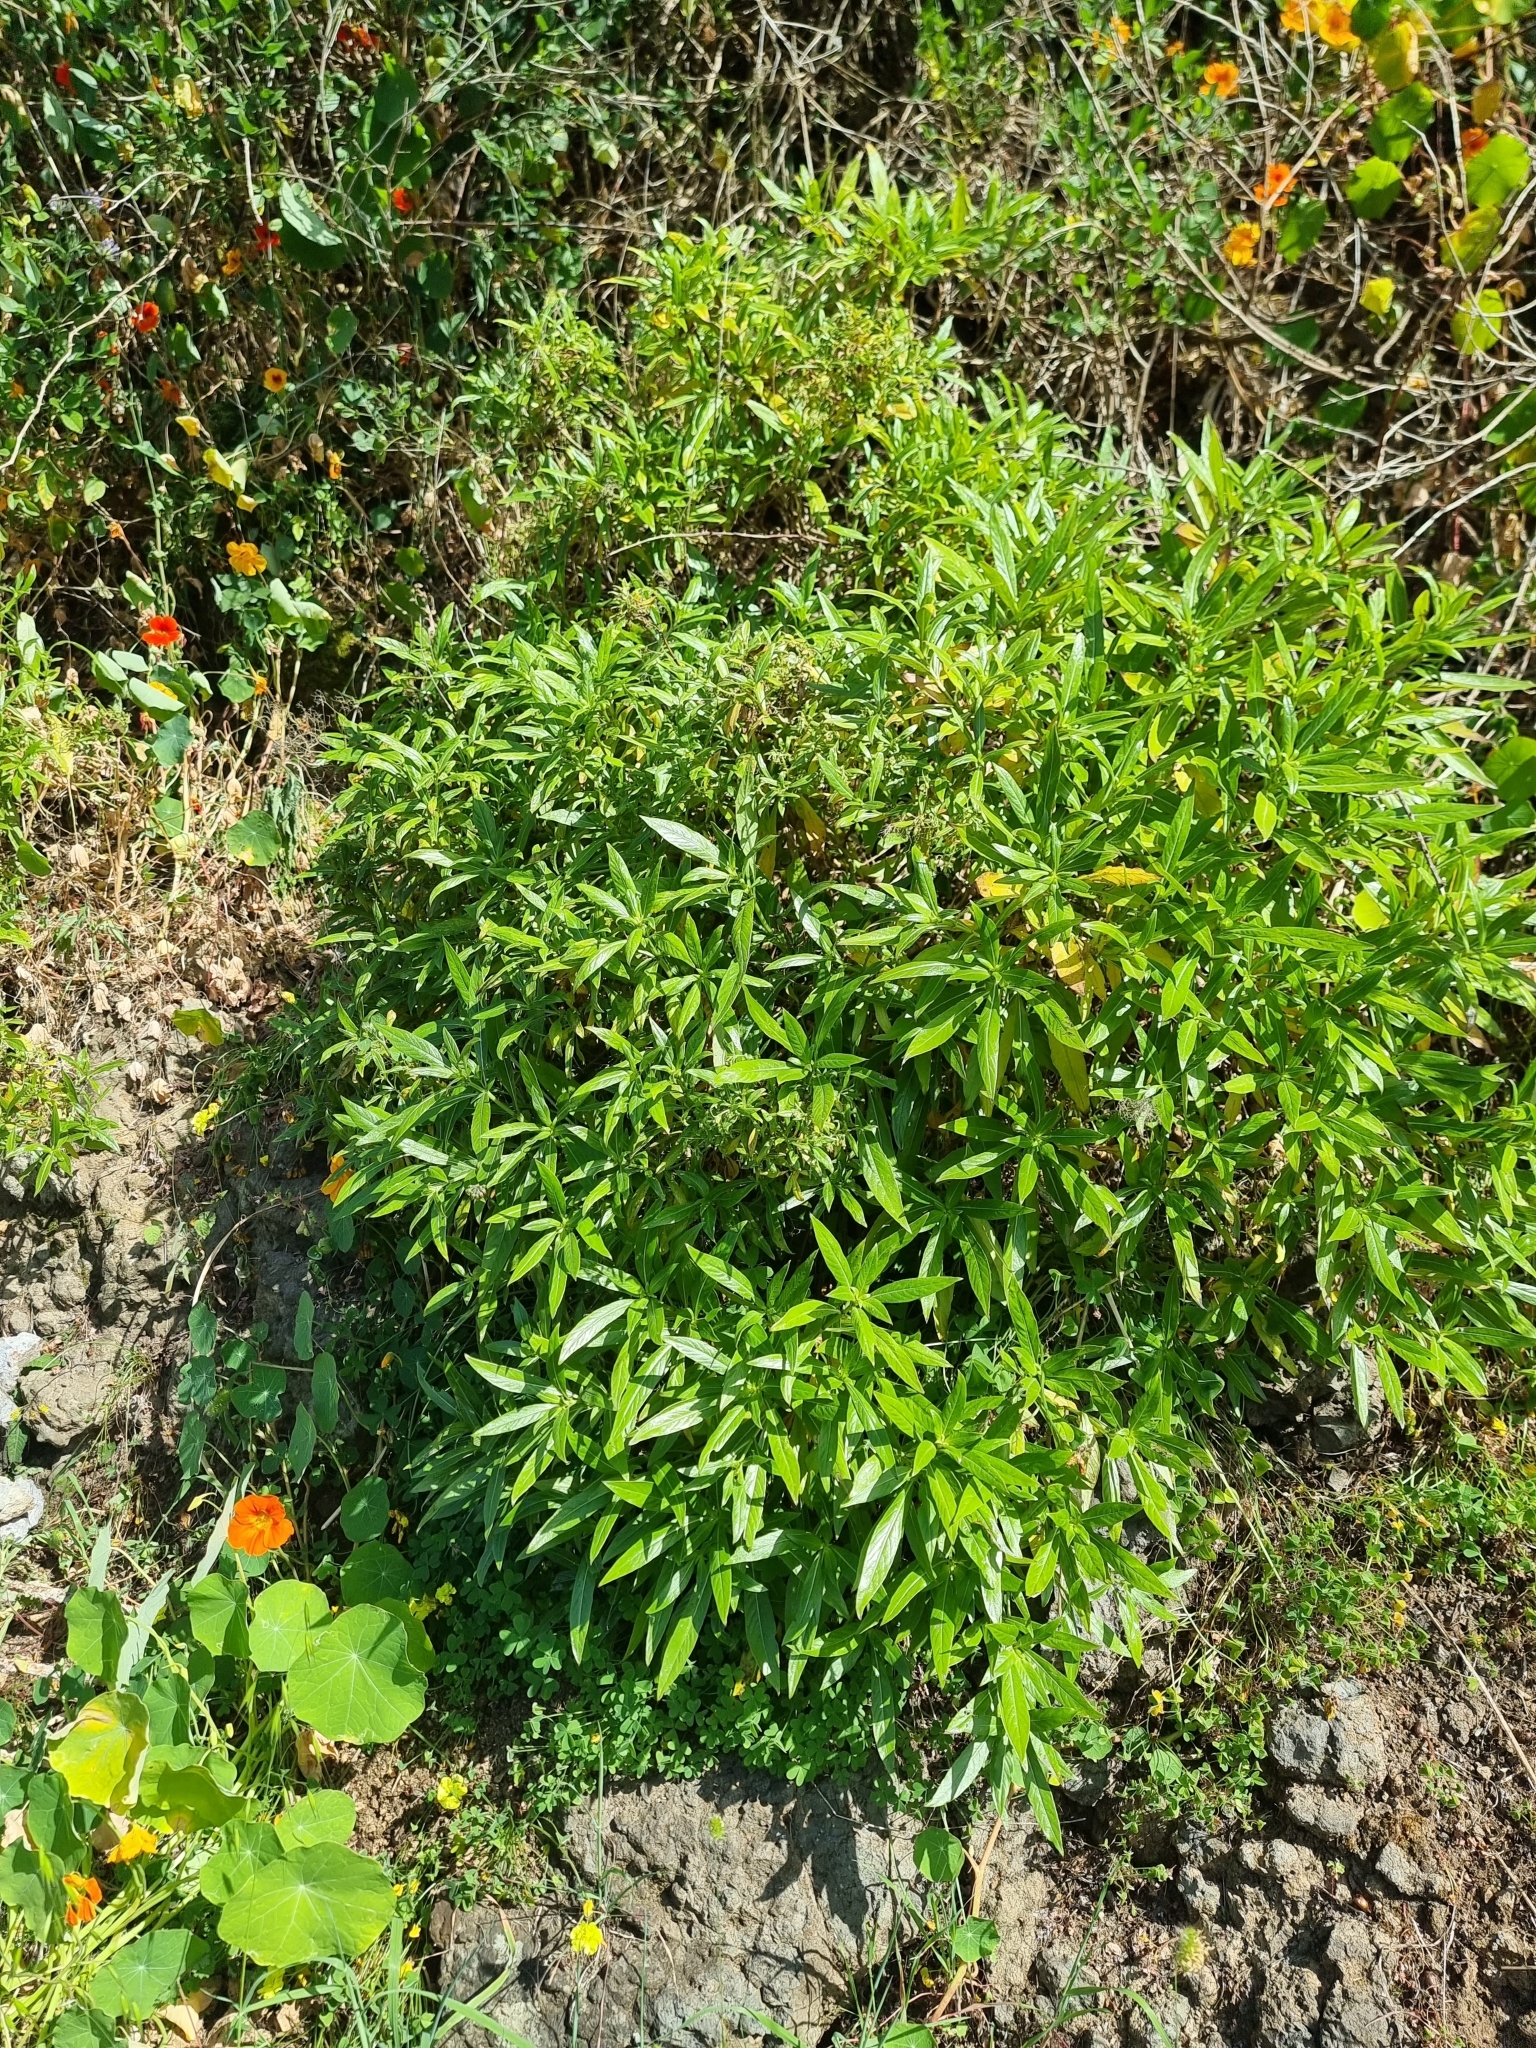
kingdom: Plantae
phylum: Tracheophyta
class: Magnoliopsida
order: Gentianales
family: Rubiaceae
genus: Phyllis
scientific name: Phyllis nobla
